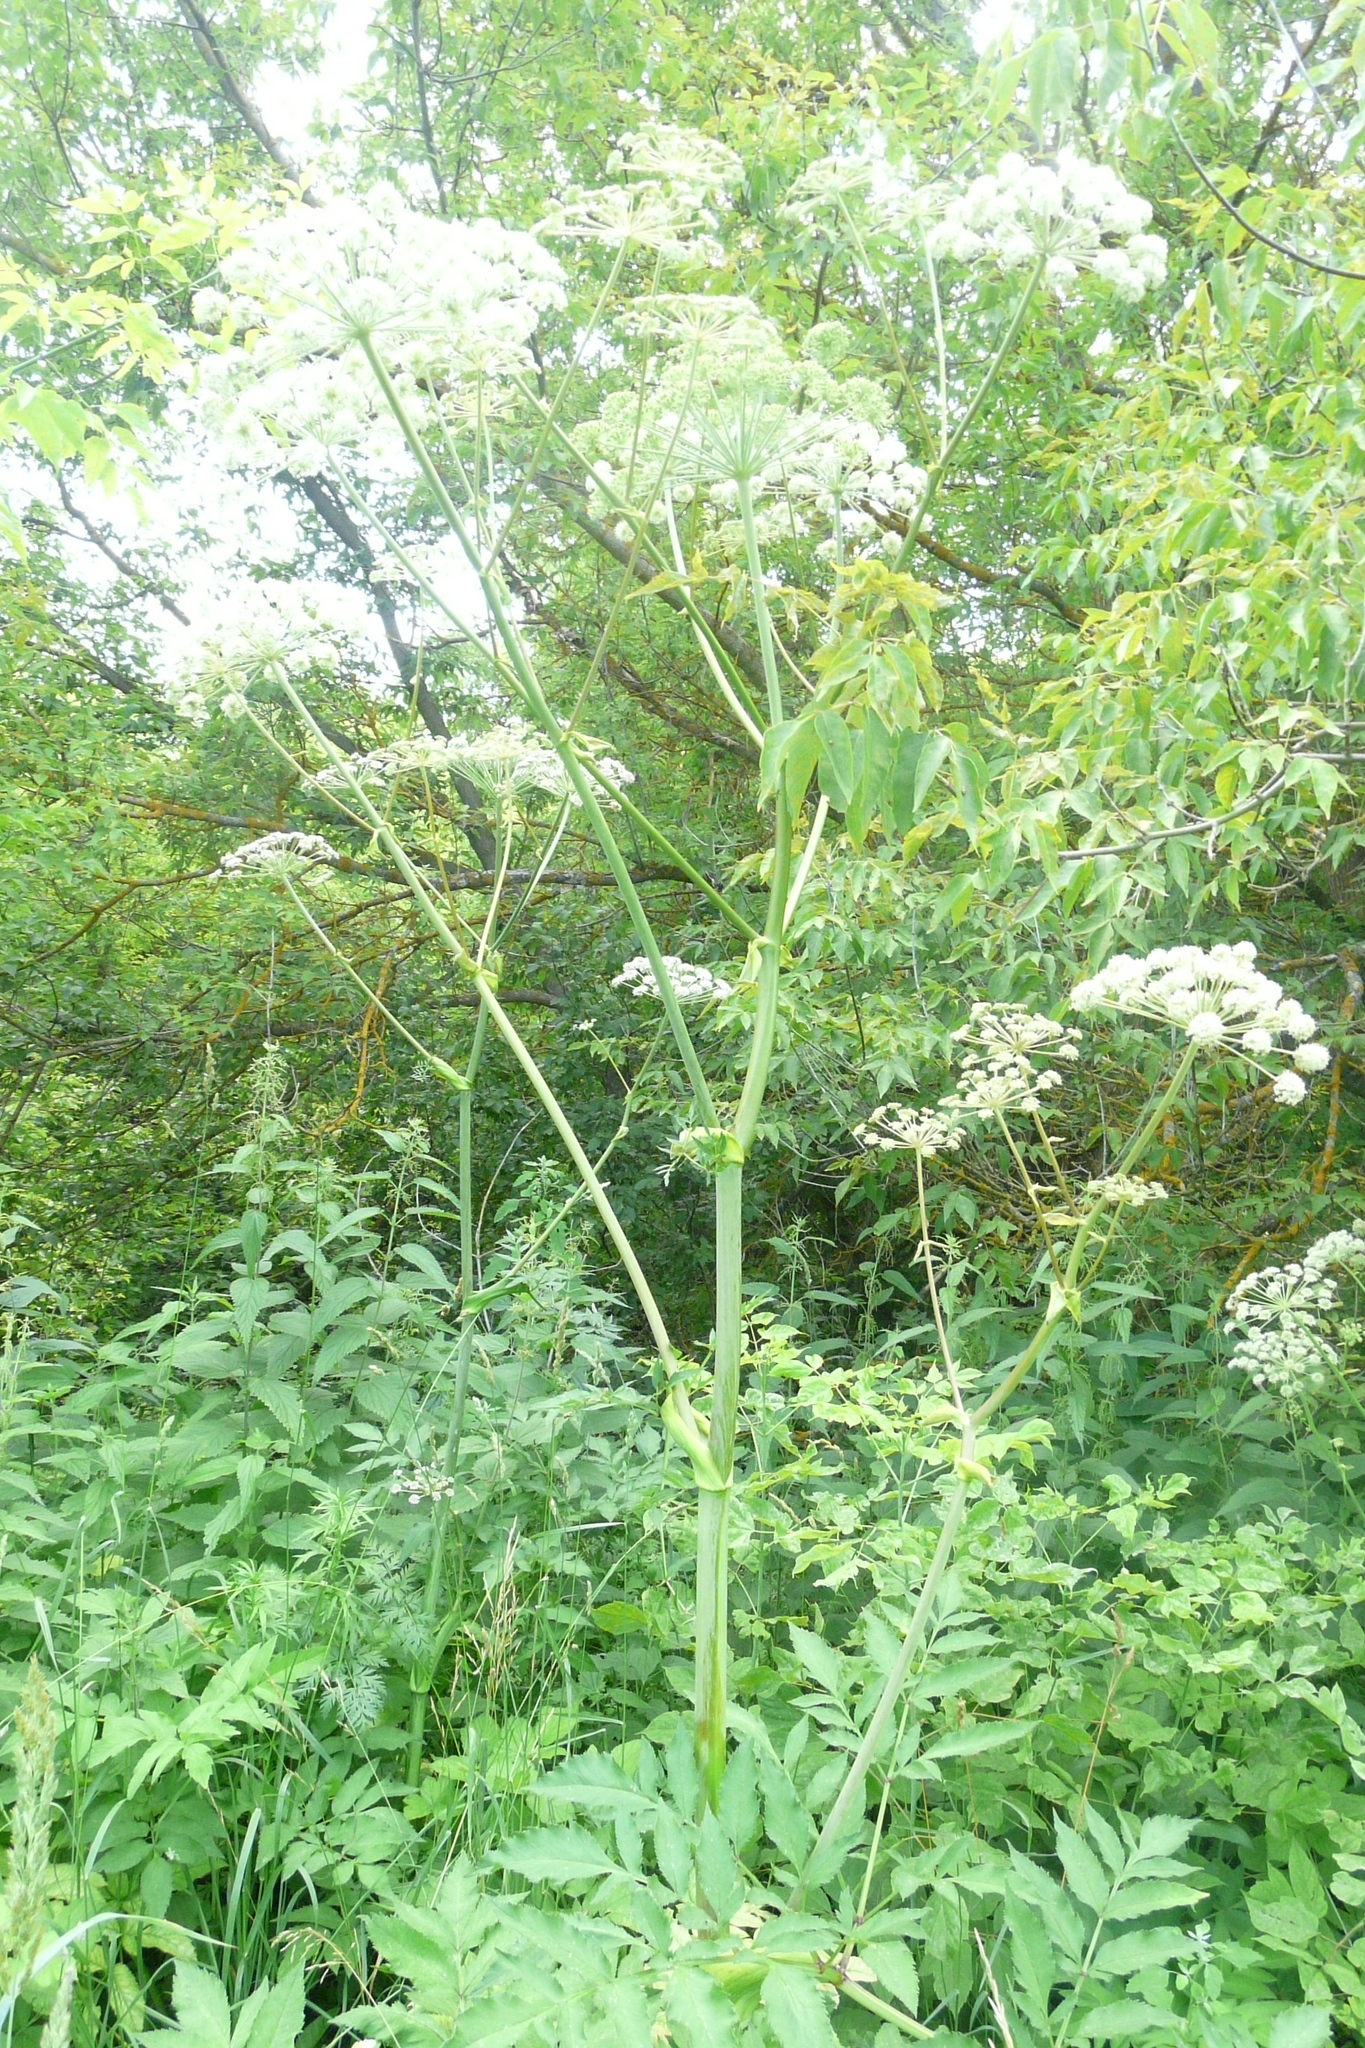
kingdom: Plantae
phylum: Tracheophyta
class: Magnoliopsida
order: Apiales
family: Apiaceae
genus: Angelica
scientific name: Angelica sylvestris
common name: Wild angelica
